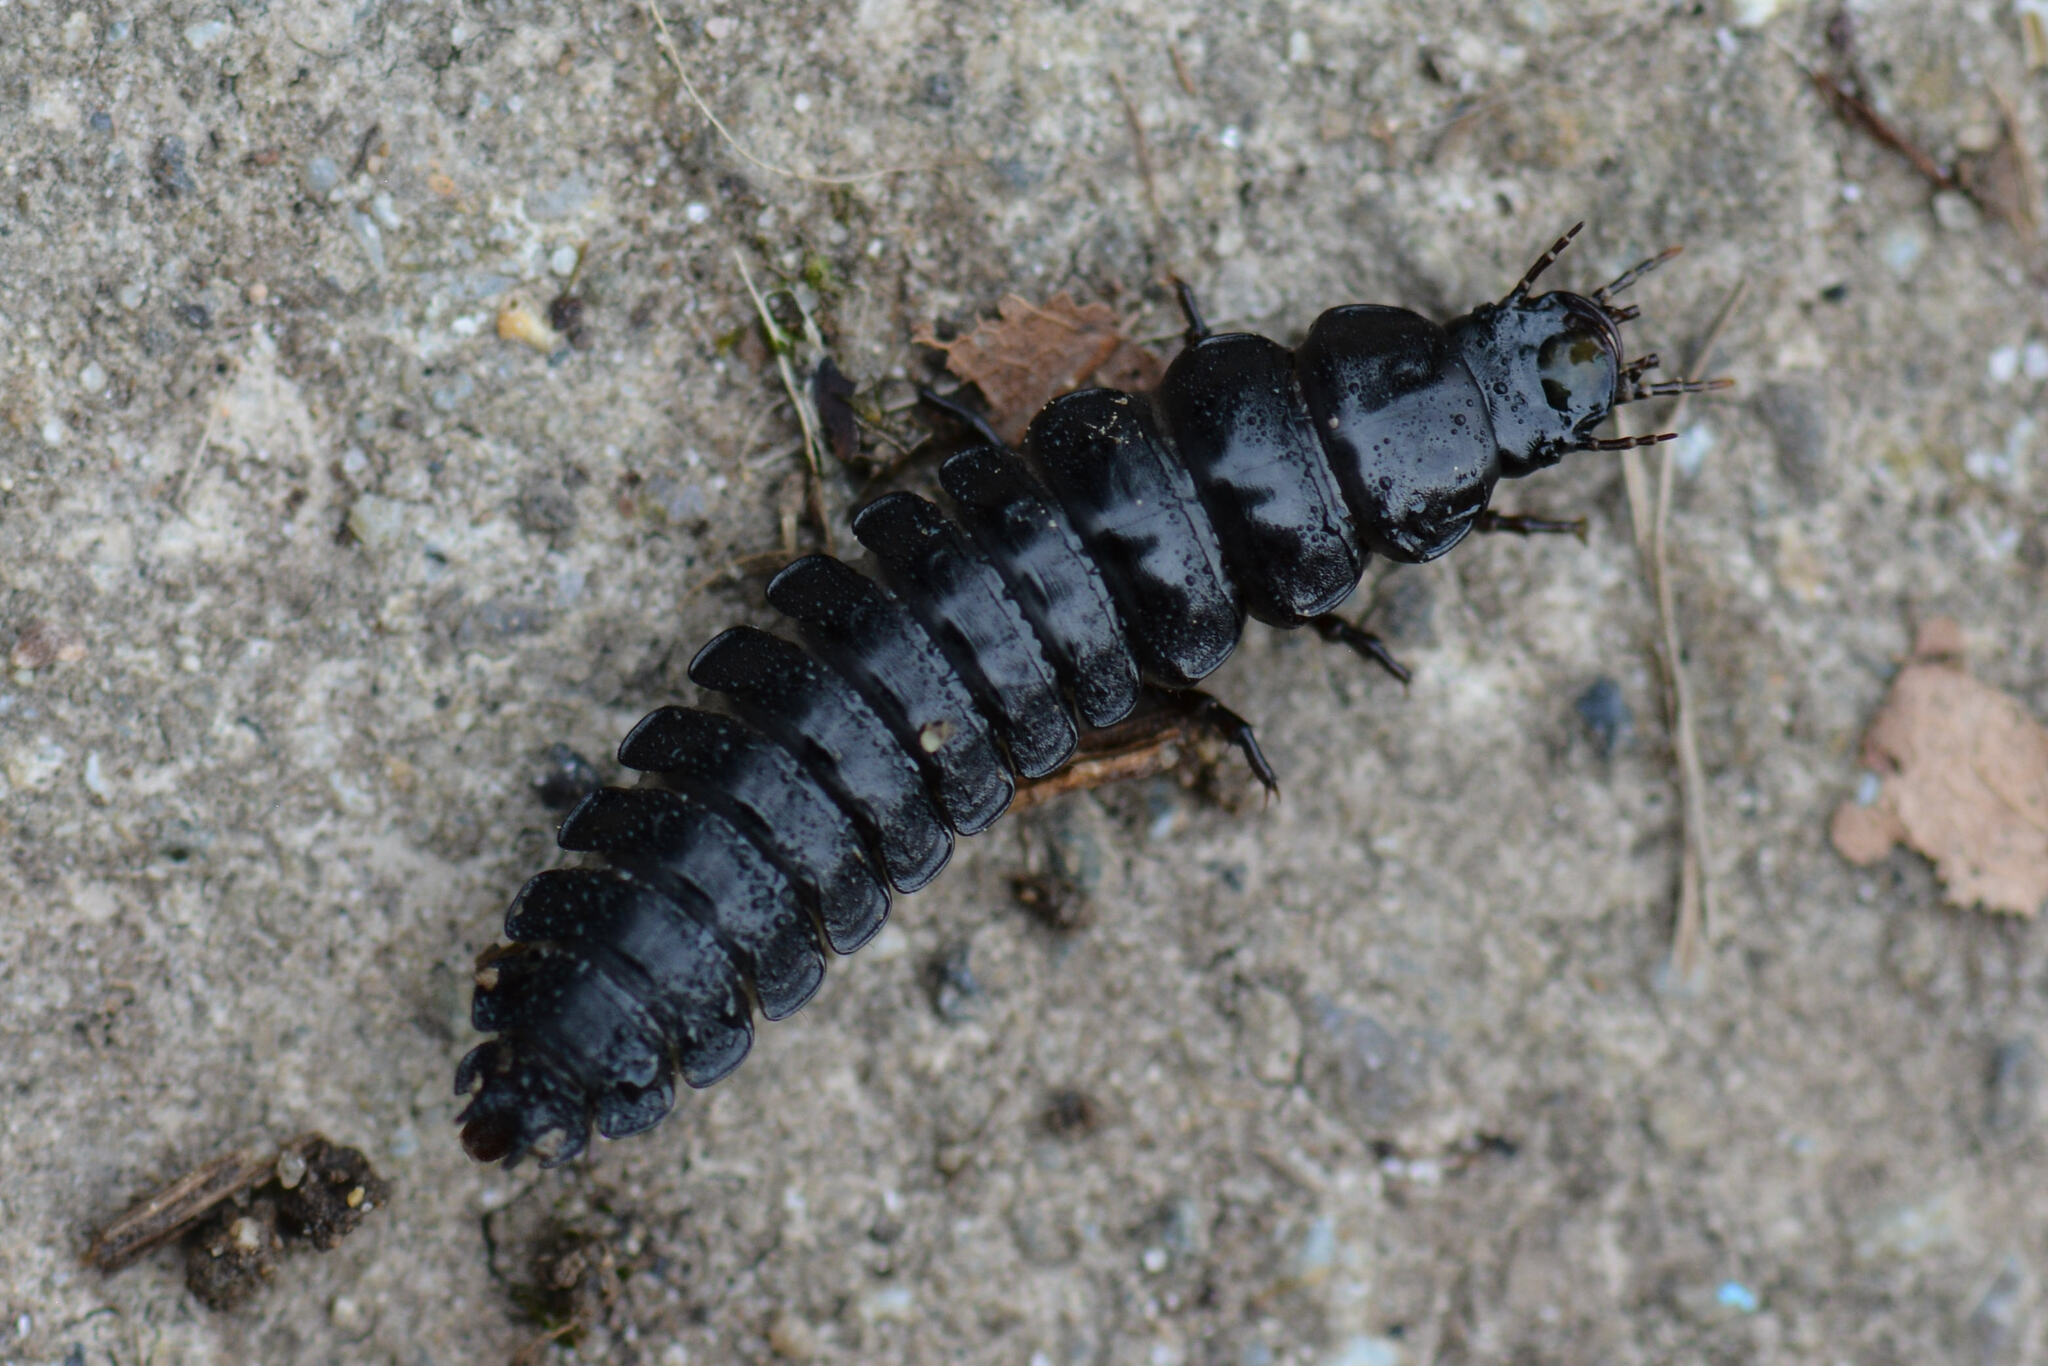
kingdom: Animalia
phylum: Arthropoda
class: Insecta
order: Coleoptera
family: Carabidae
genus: Carabus
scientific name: Carabus
